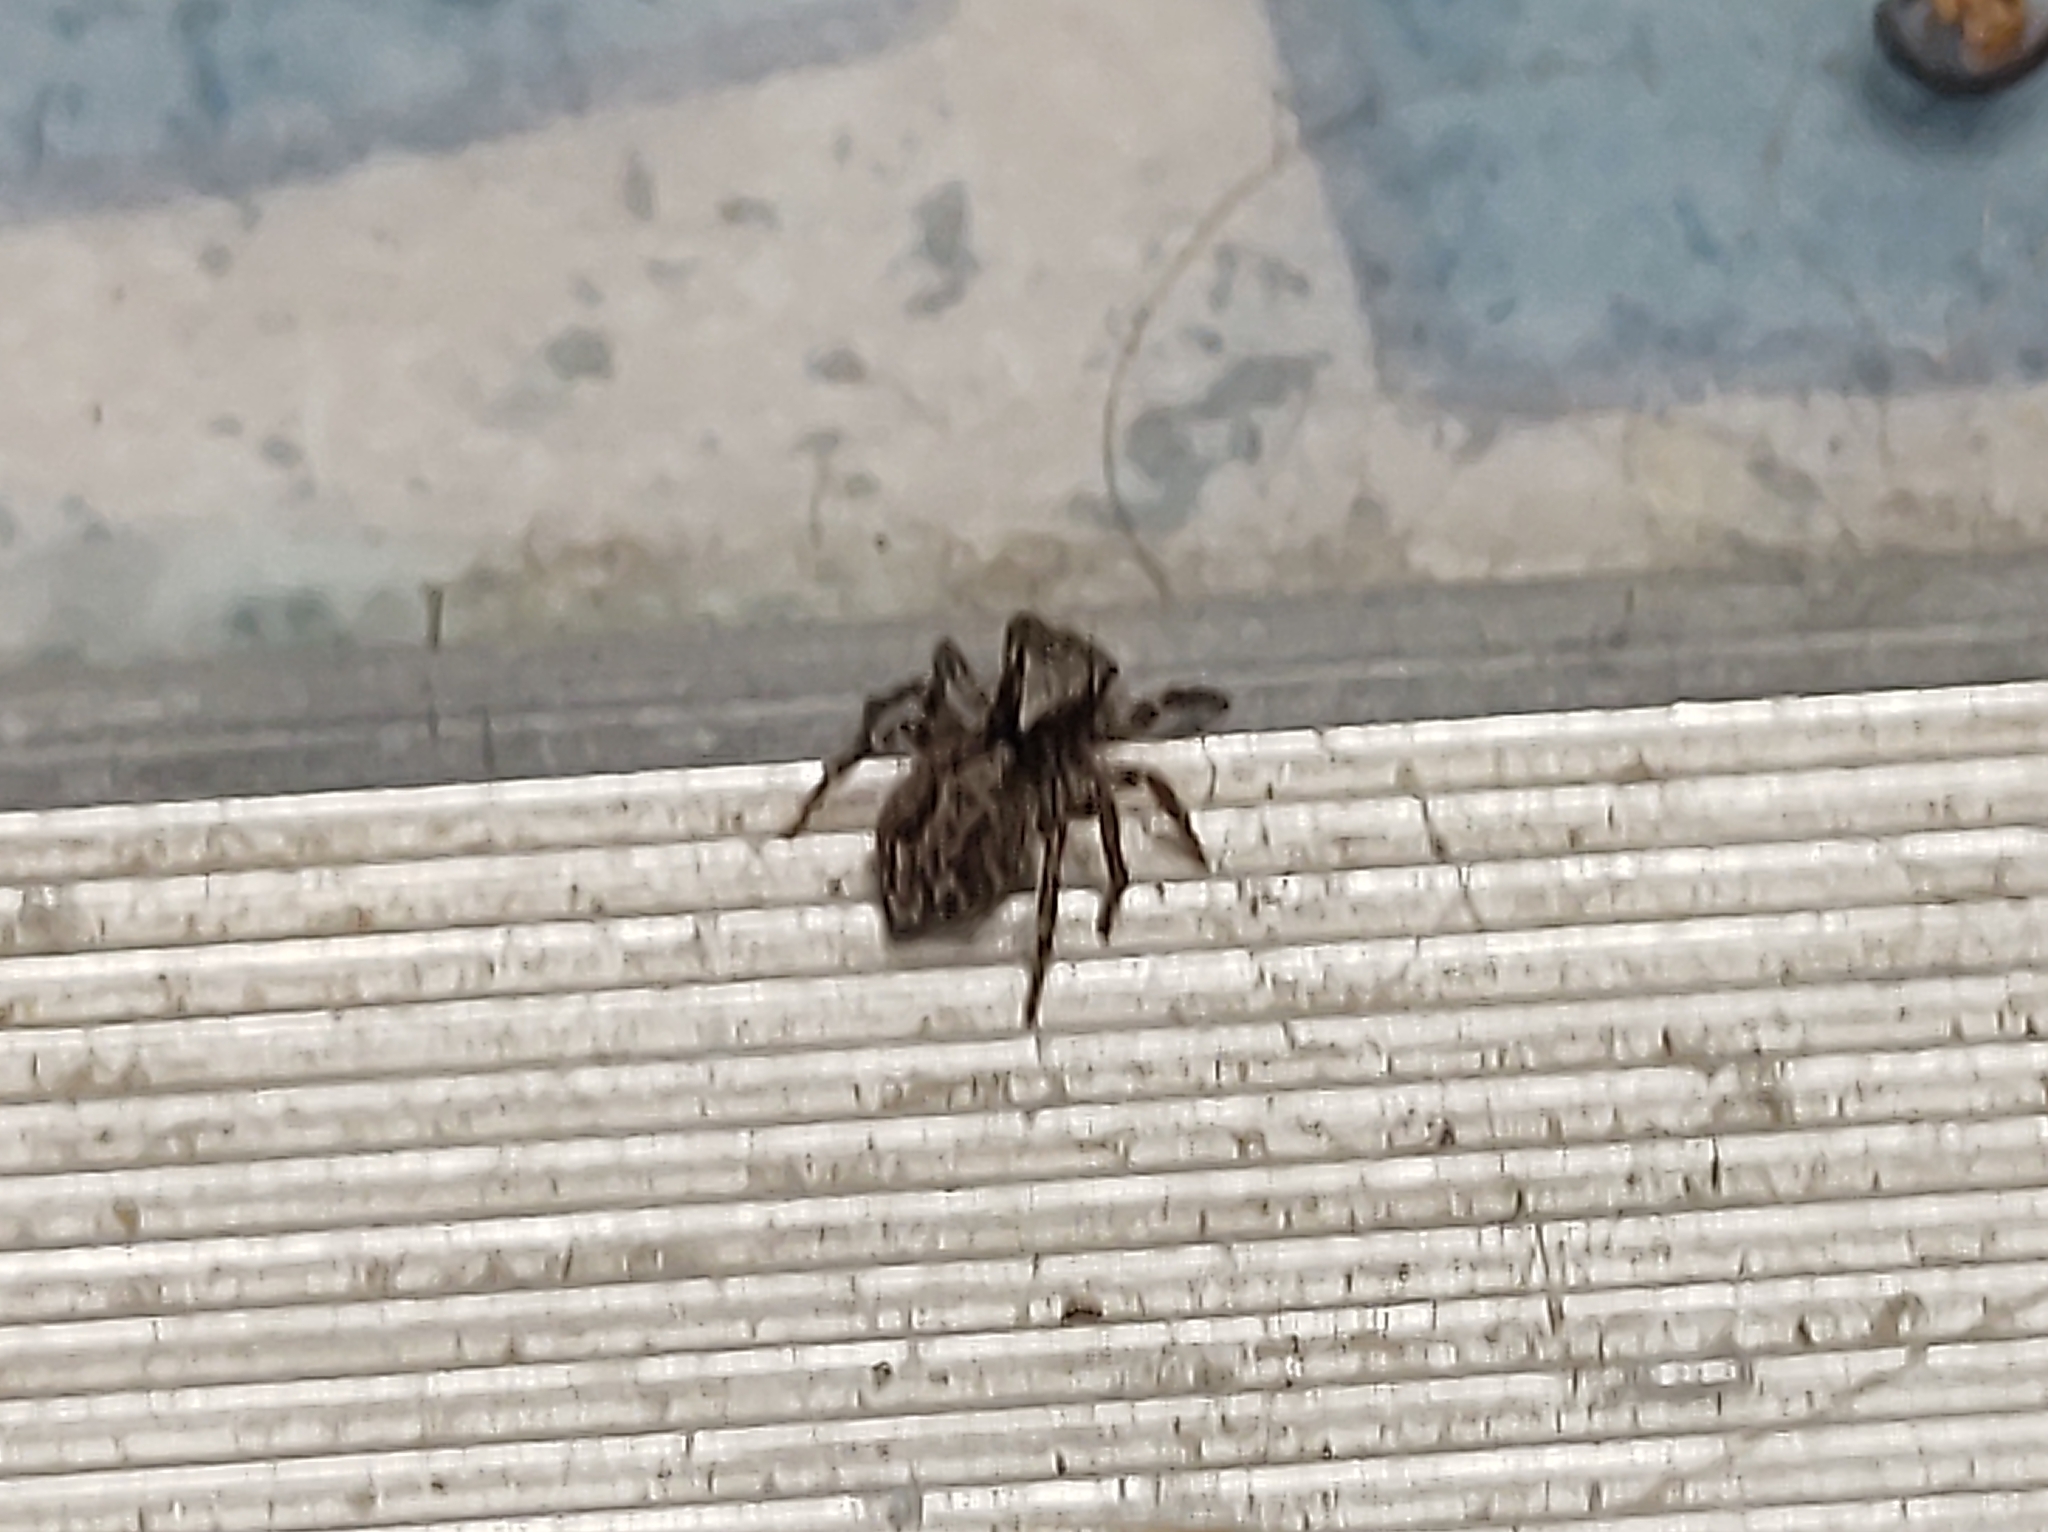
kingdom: Animalia
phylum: Arthropoda
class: Arachnida
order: Araneae
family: Salticidae
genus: Pseudeuophrys
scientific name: Pseudeuophrys lanigera
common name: Jumping spider
